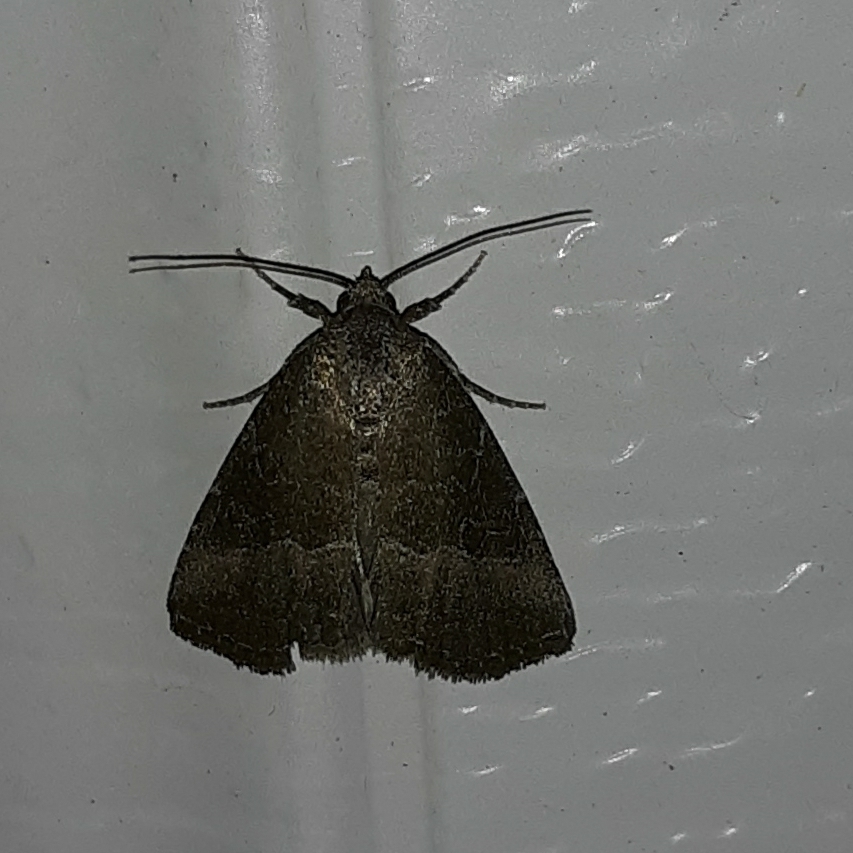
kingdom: Animalia
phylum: Arthropoda
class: Insecta
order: Lepidoptera
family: Noctuidae
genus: Ogdoconta
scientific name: Ogdoconta cinereola
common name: Common pinkband
